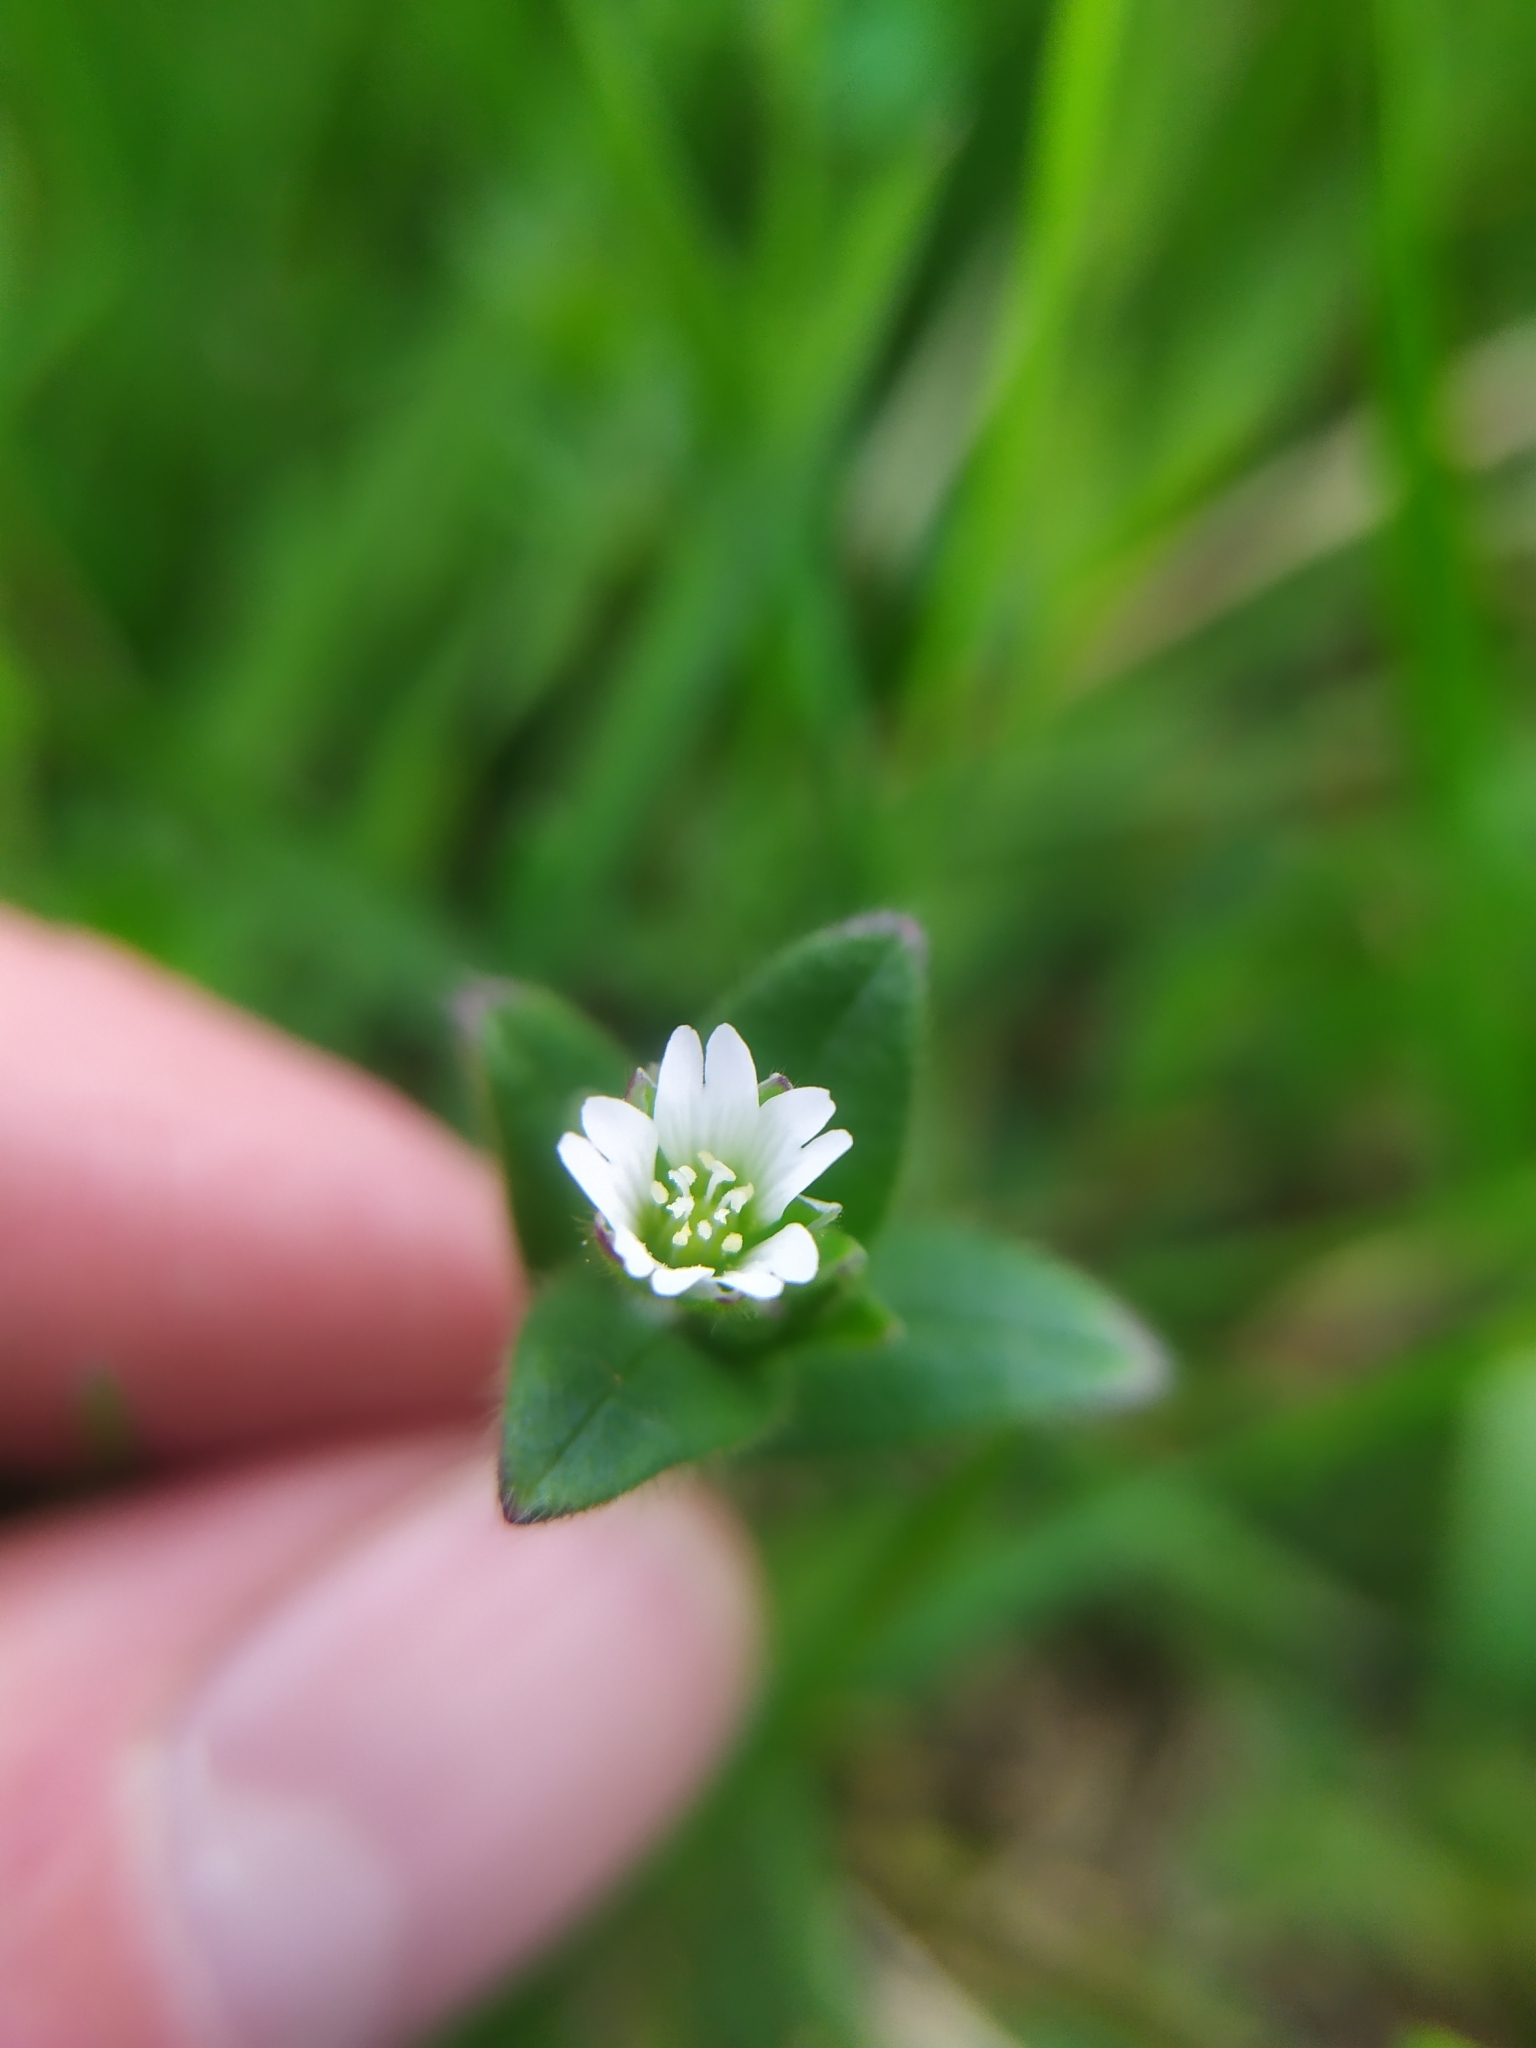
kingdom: Plantae
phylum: Tracheophyta
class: Magnoliopsida
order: Caryophyllales
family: Caryophyllaceae
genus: Cerastium
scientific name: Cerastium holosteoides
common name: Big chickweed
